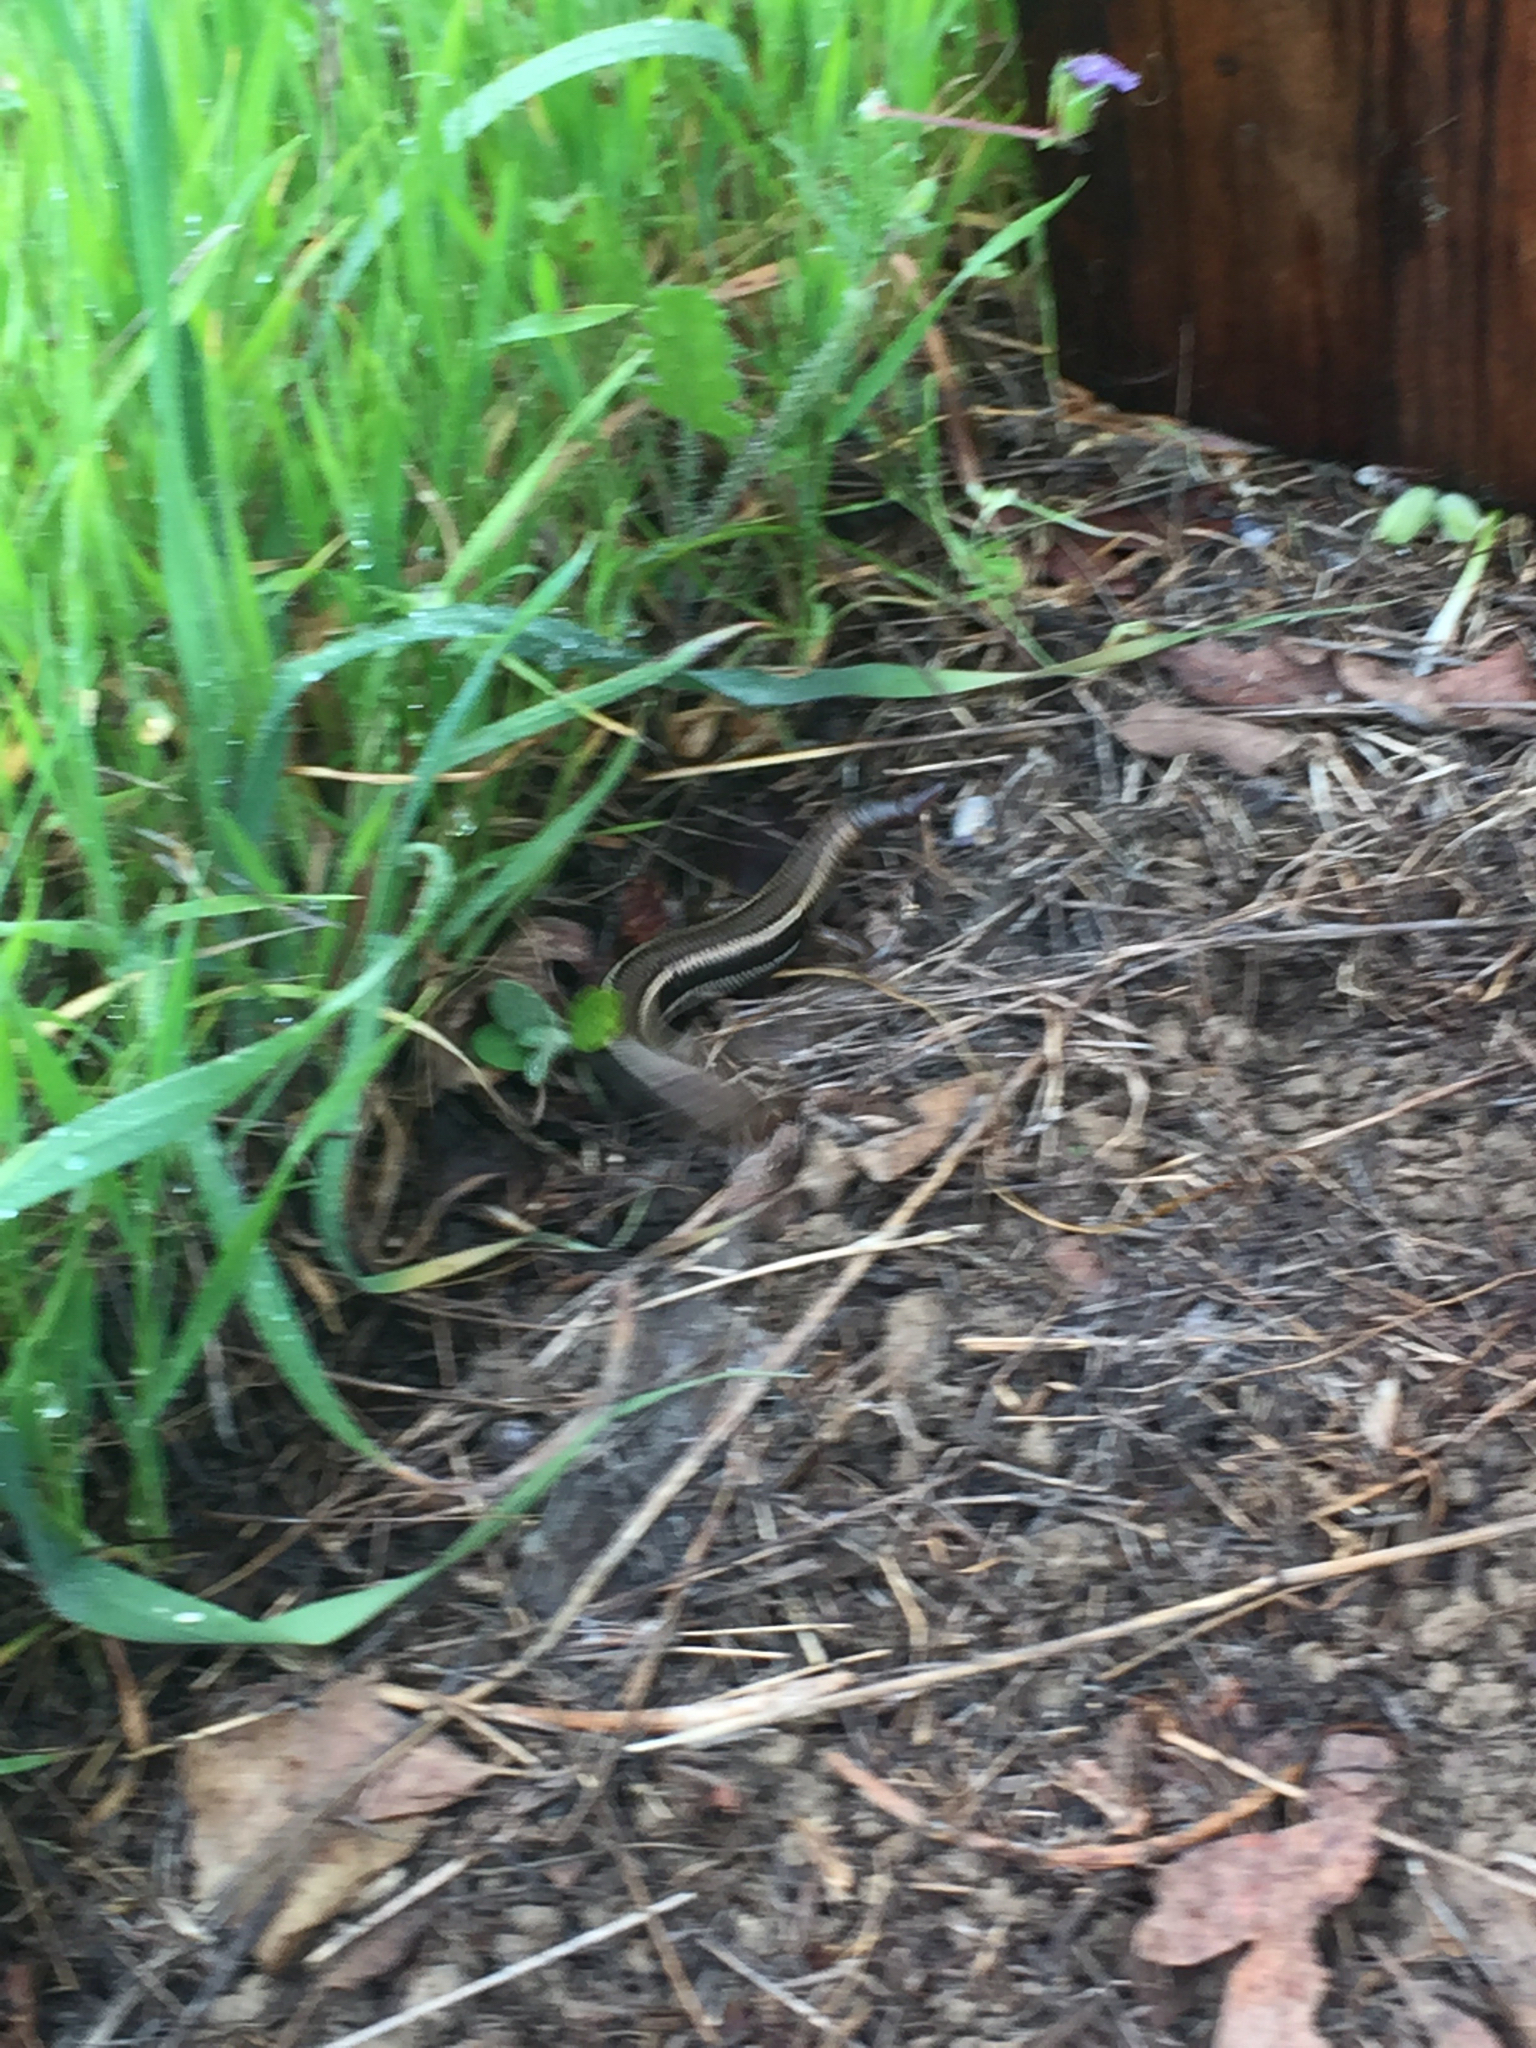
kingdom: Animalia
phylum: Chordata
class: Squamata
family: Scincidae
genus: Plestiodon
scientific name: Plestiodon skiltonianus
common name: Coronado island skink [interparietalis]
